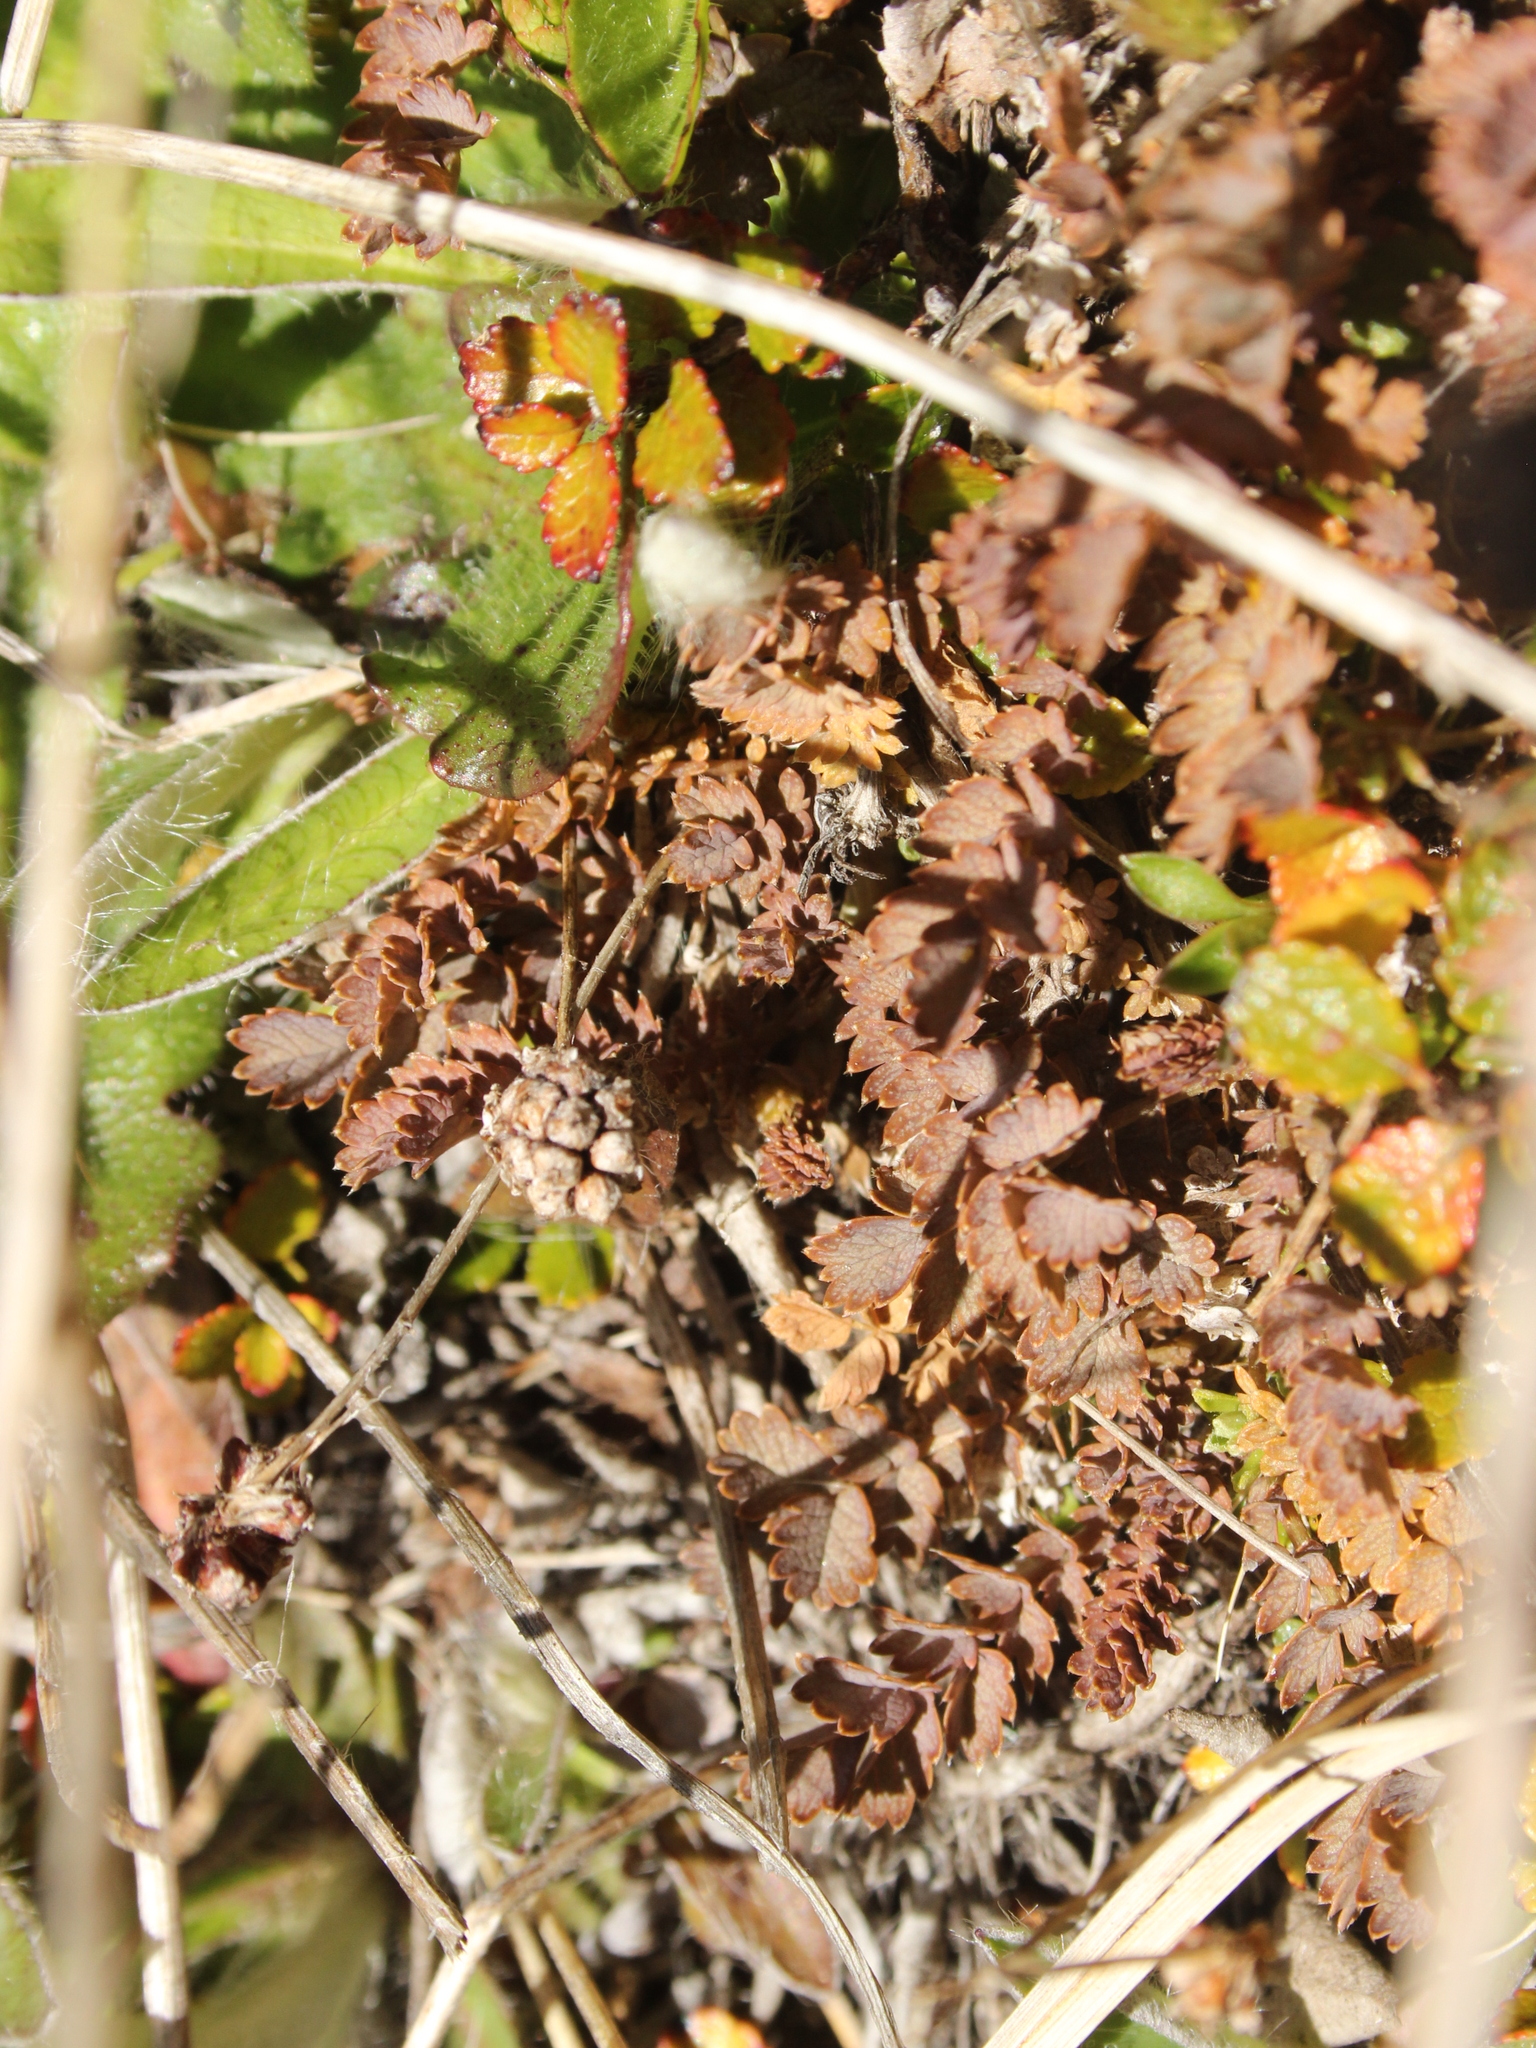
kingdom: Plantae
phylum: Tracheophyta
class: Magnoliopsida
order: Rosales
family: Rosaceae
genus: Acaena
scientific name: Acaena inermis
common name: Spineless acaena
